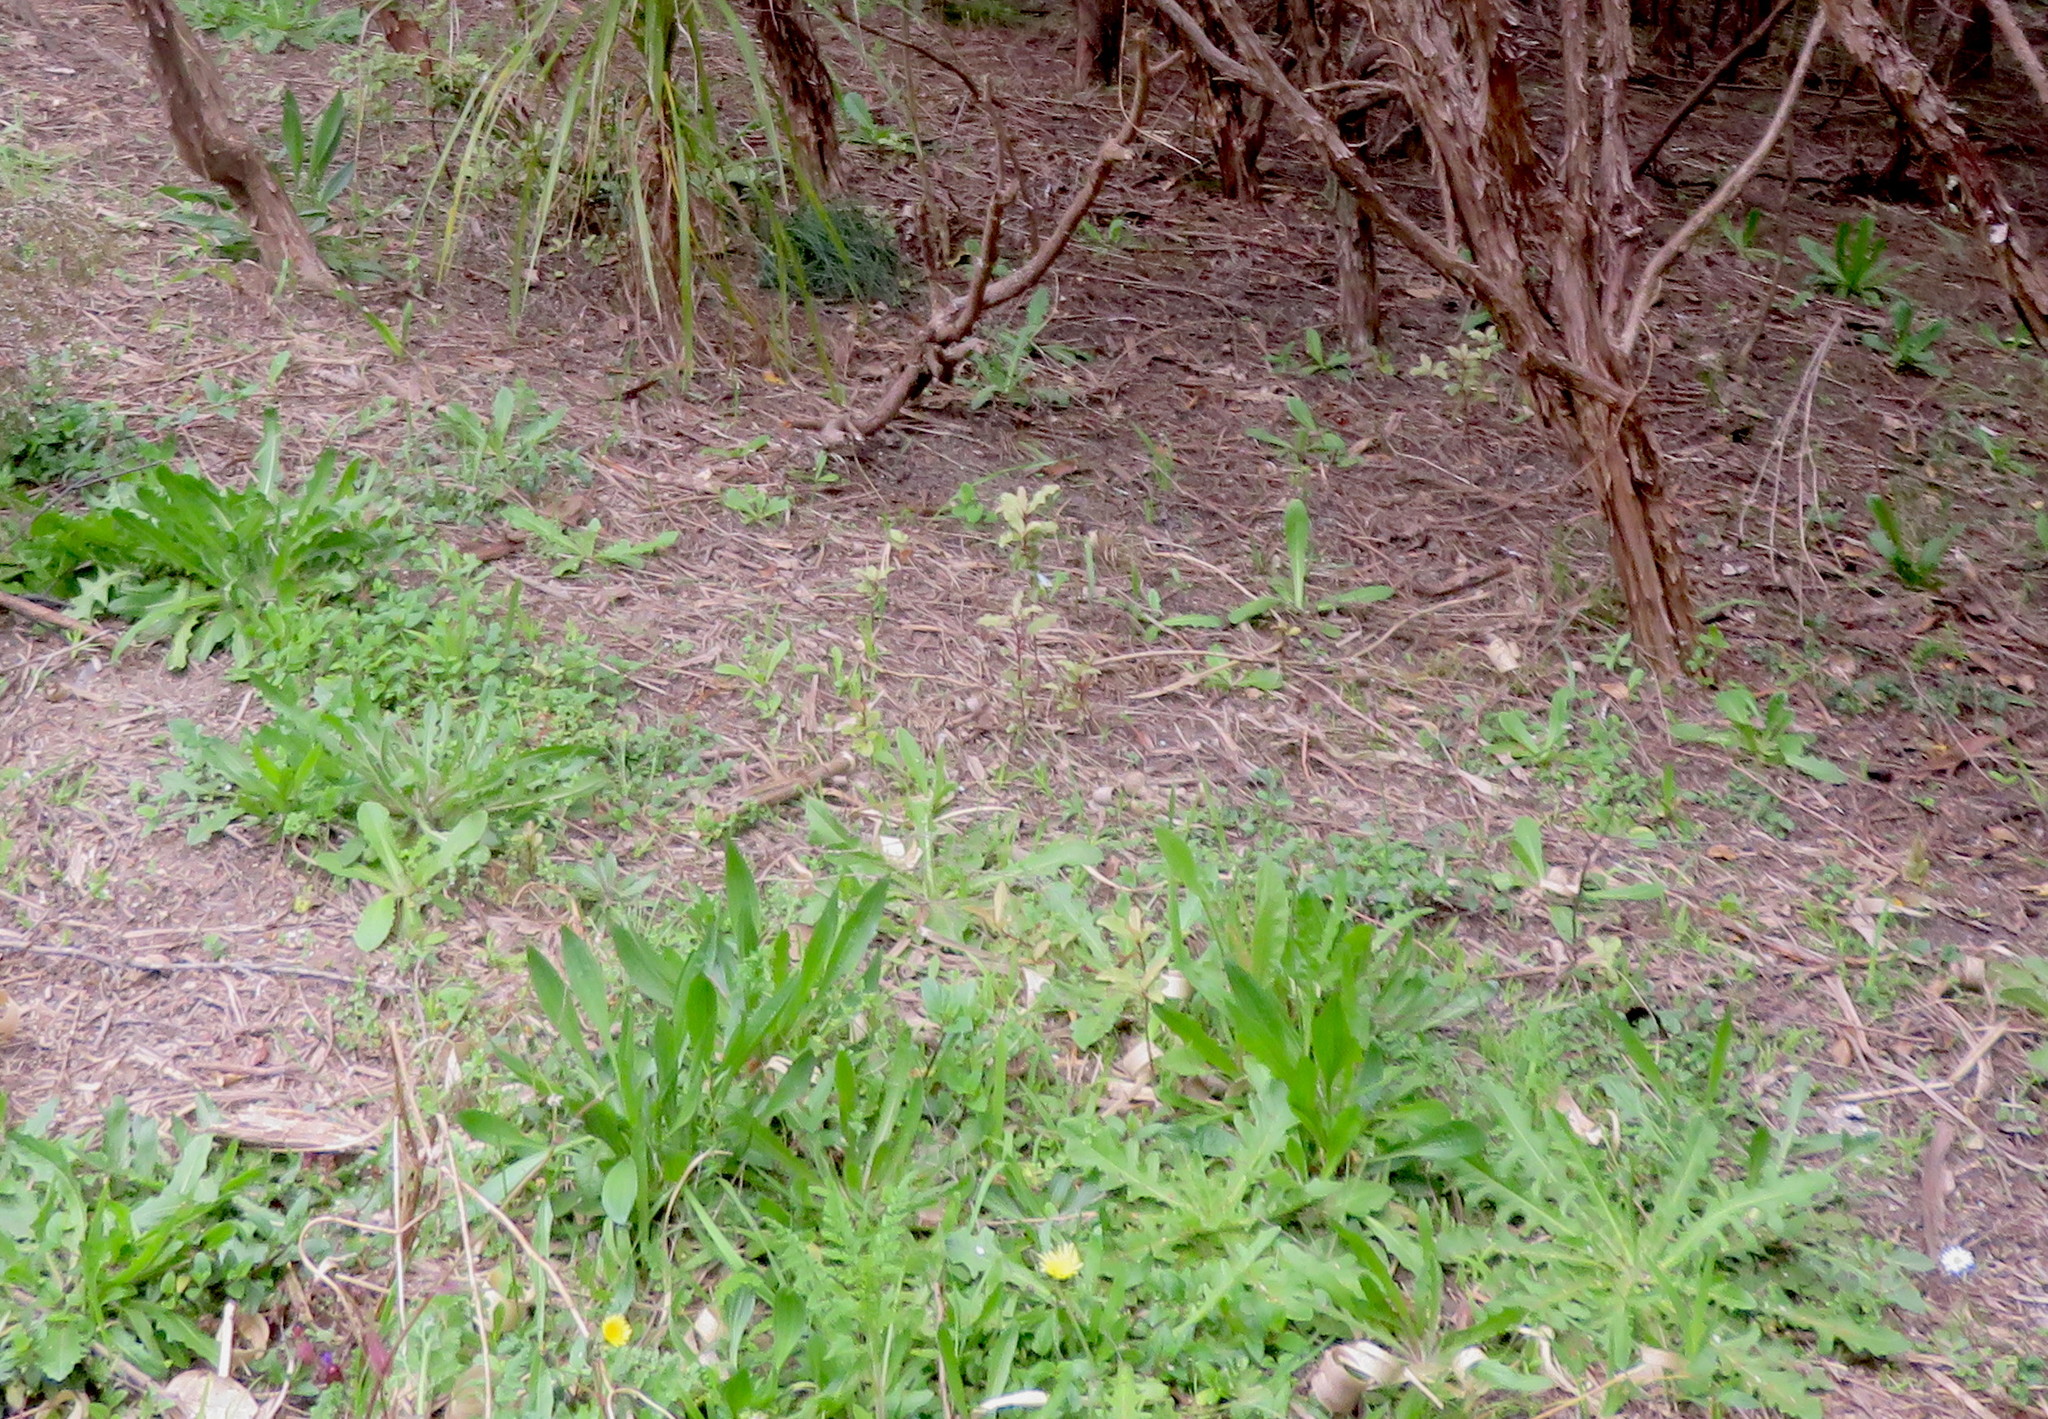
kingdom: Plantae
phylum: Tracheophyta
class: Magnoliopsida
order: Asterales
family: Asteraceae
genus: Hypochaeris
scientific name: Hypochaeris radicata
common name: Flatweed
